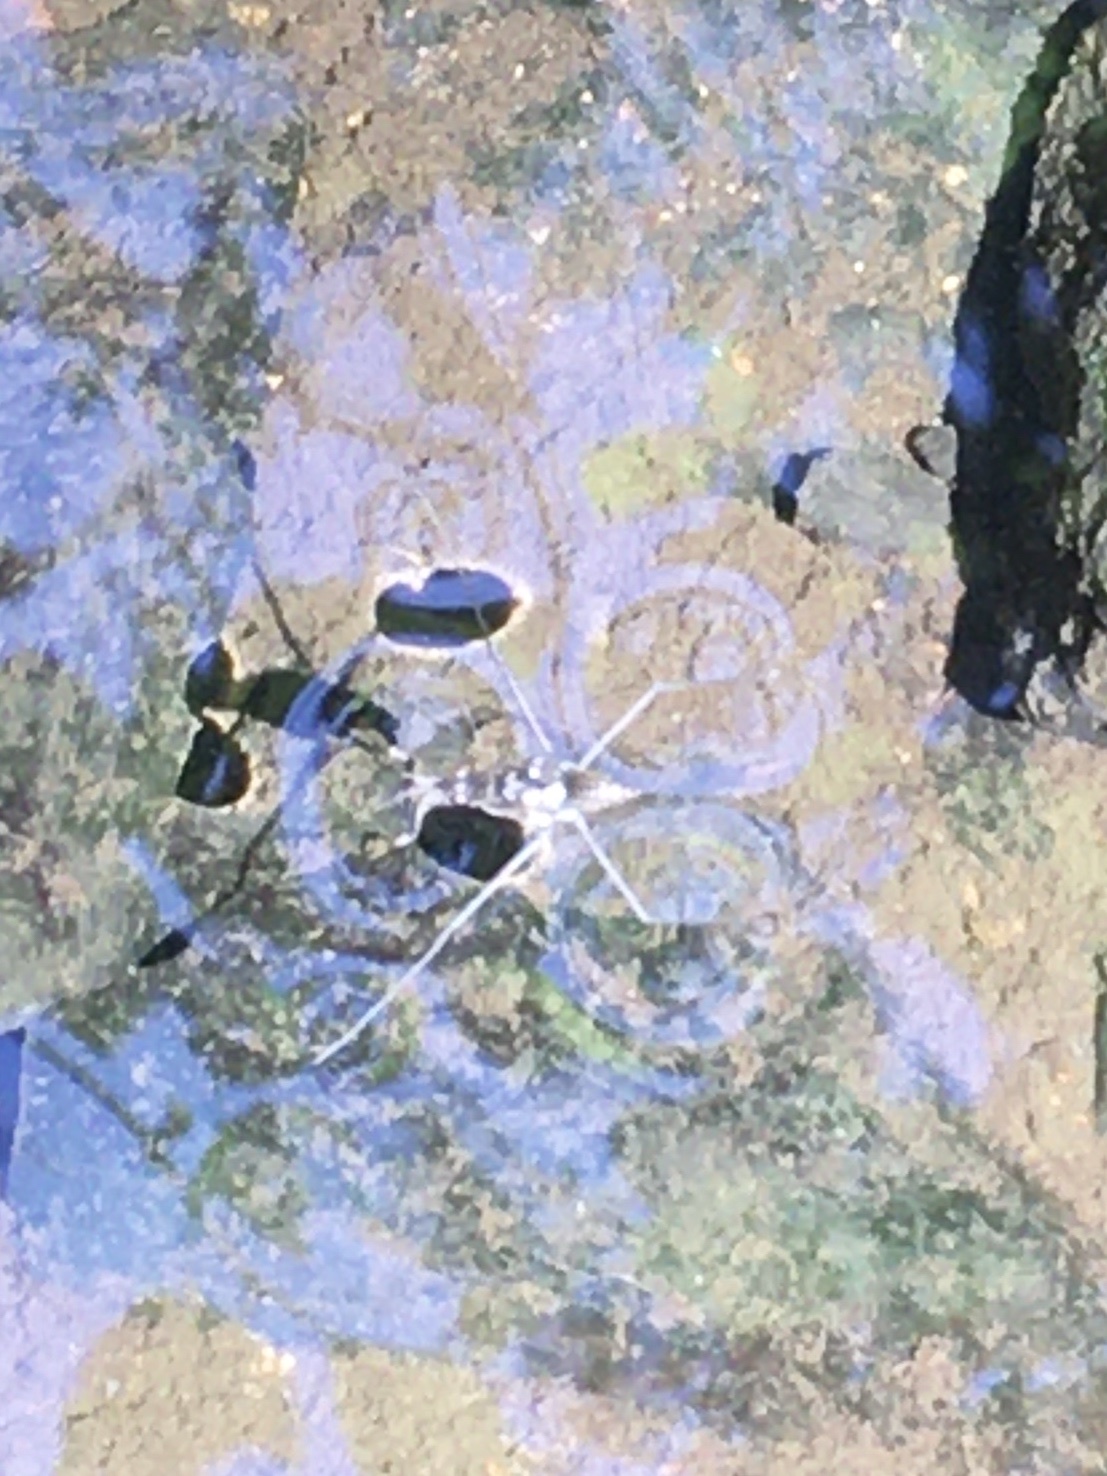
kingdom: Animalia
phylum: Arthropoda
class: Insecta
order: Hemiptera
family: Gerridae
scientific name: Gerridae
